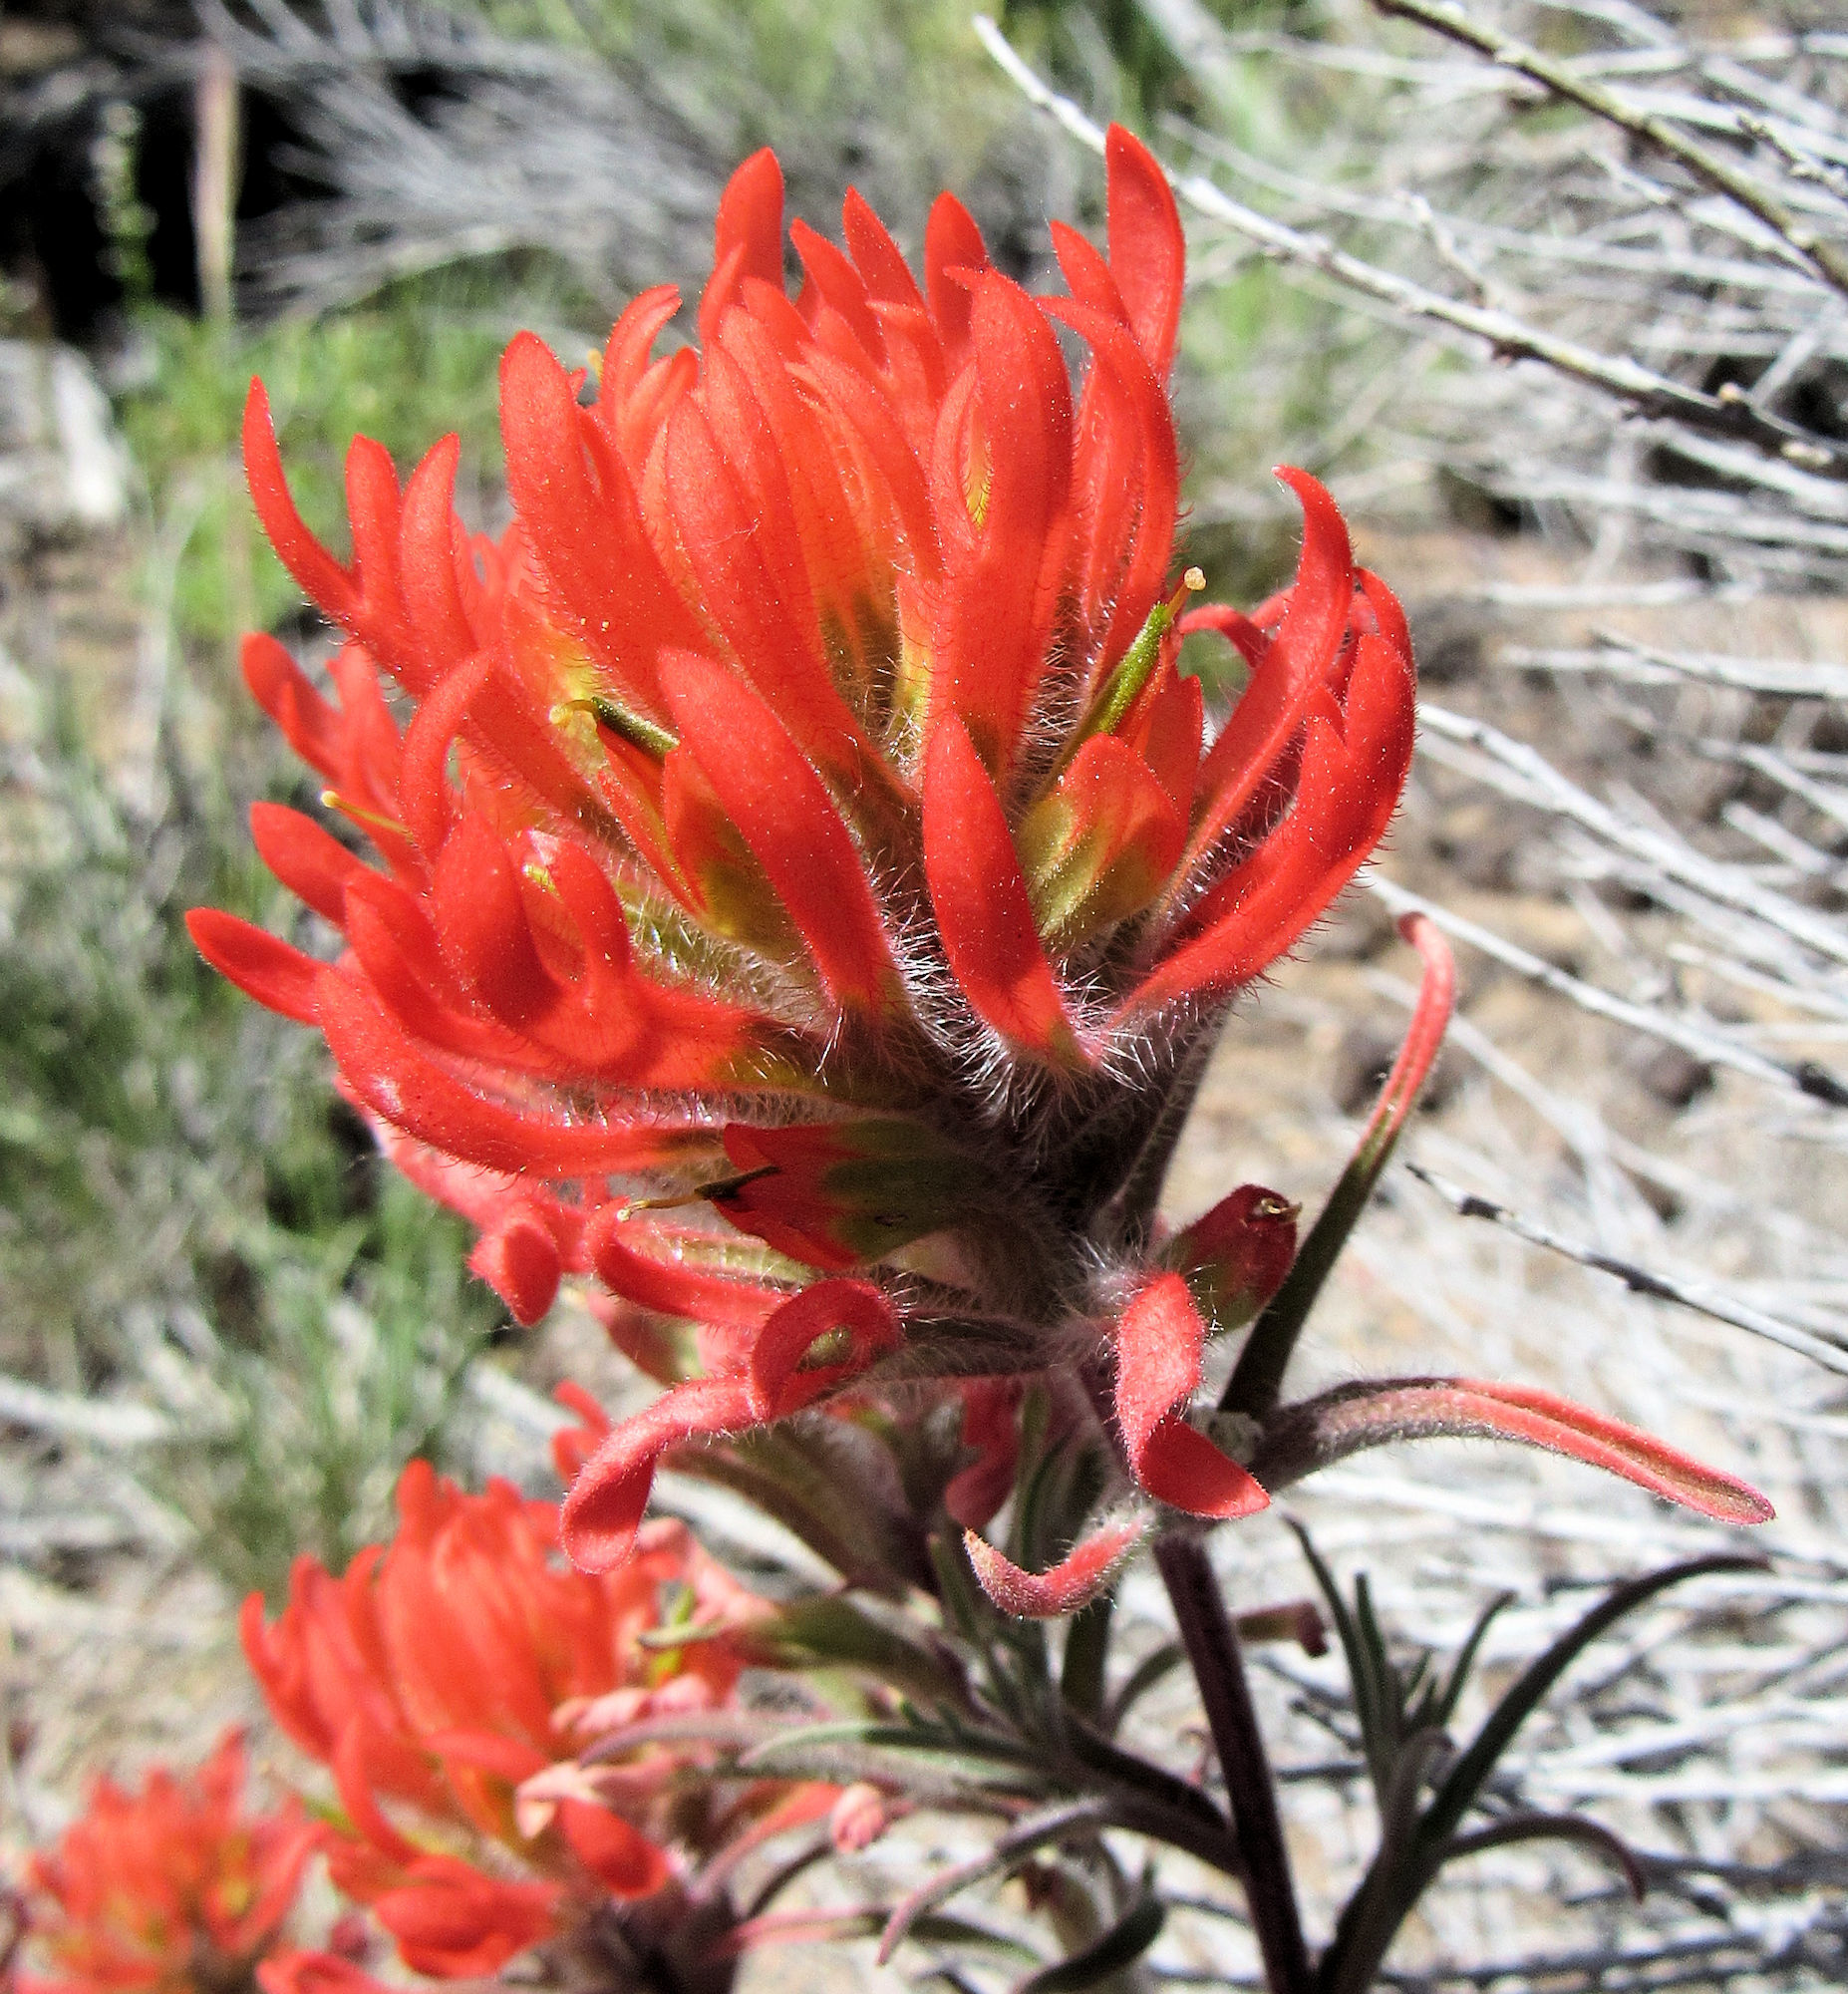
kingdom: Plantae
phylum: Tracheophyta
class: Magnoliopsida
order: Lamiales
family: Orobanchaceae
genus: Castilleja
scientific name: Castilleja chromosa
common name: Desert paintbrush
